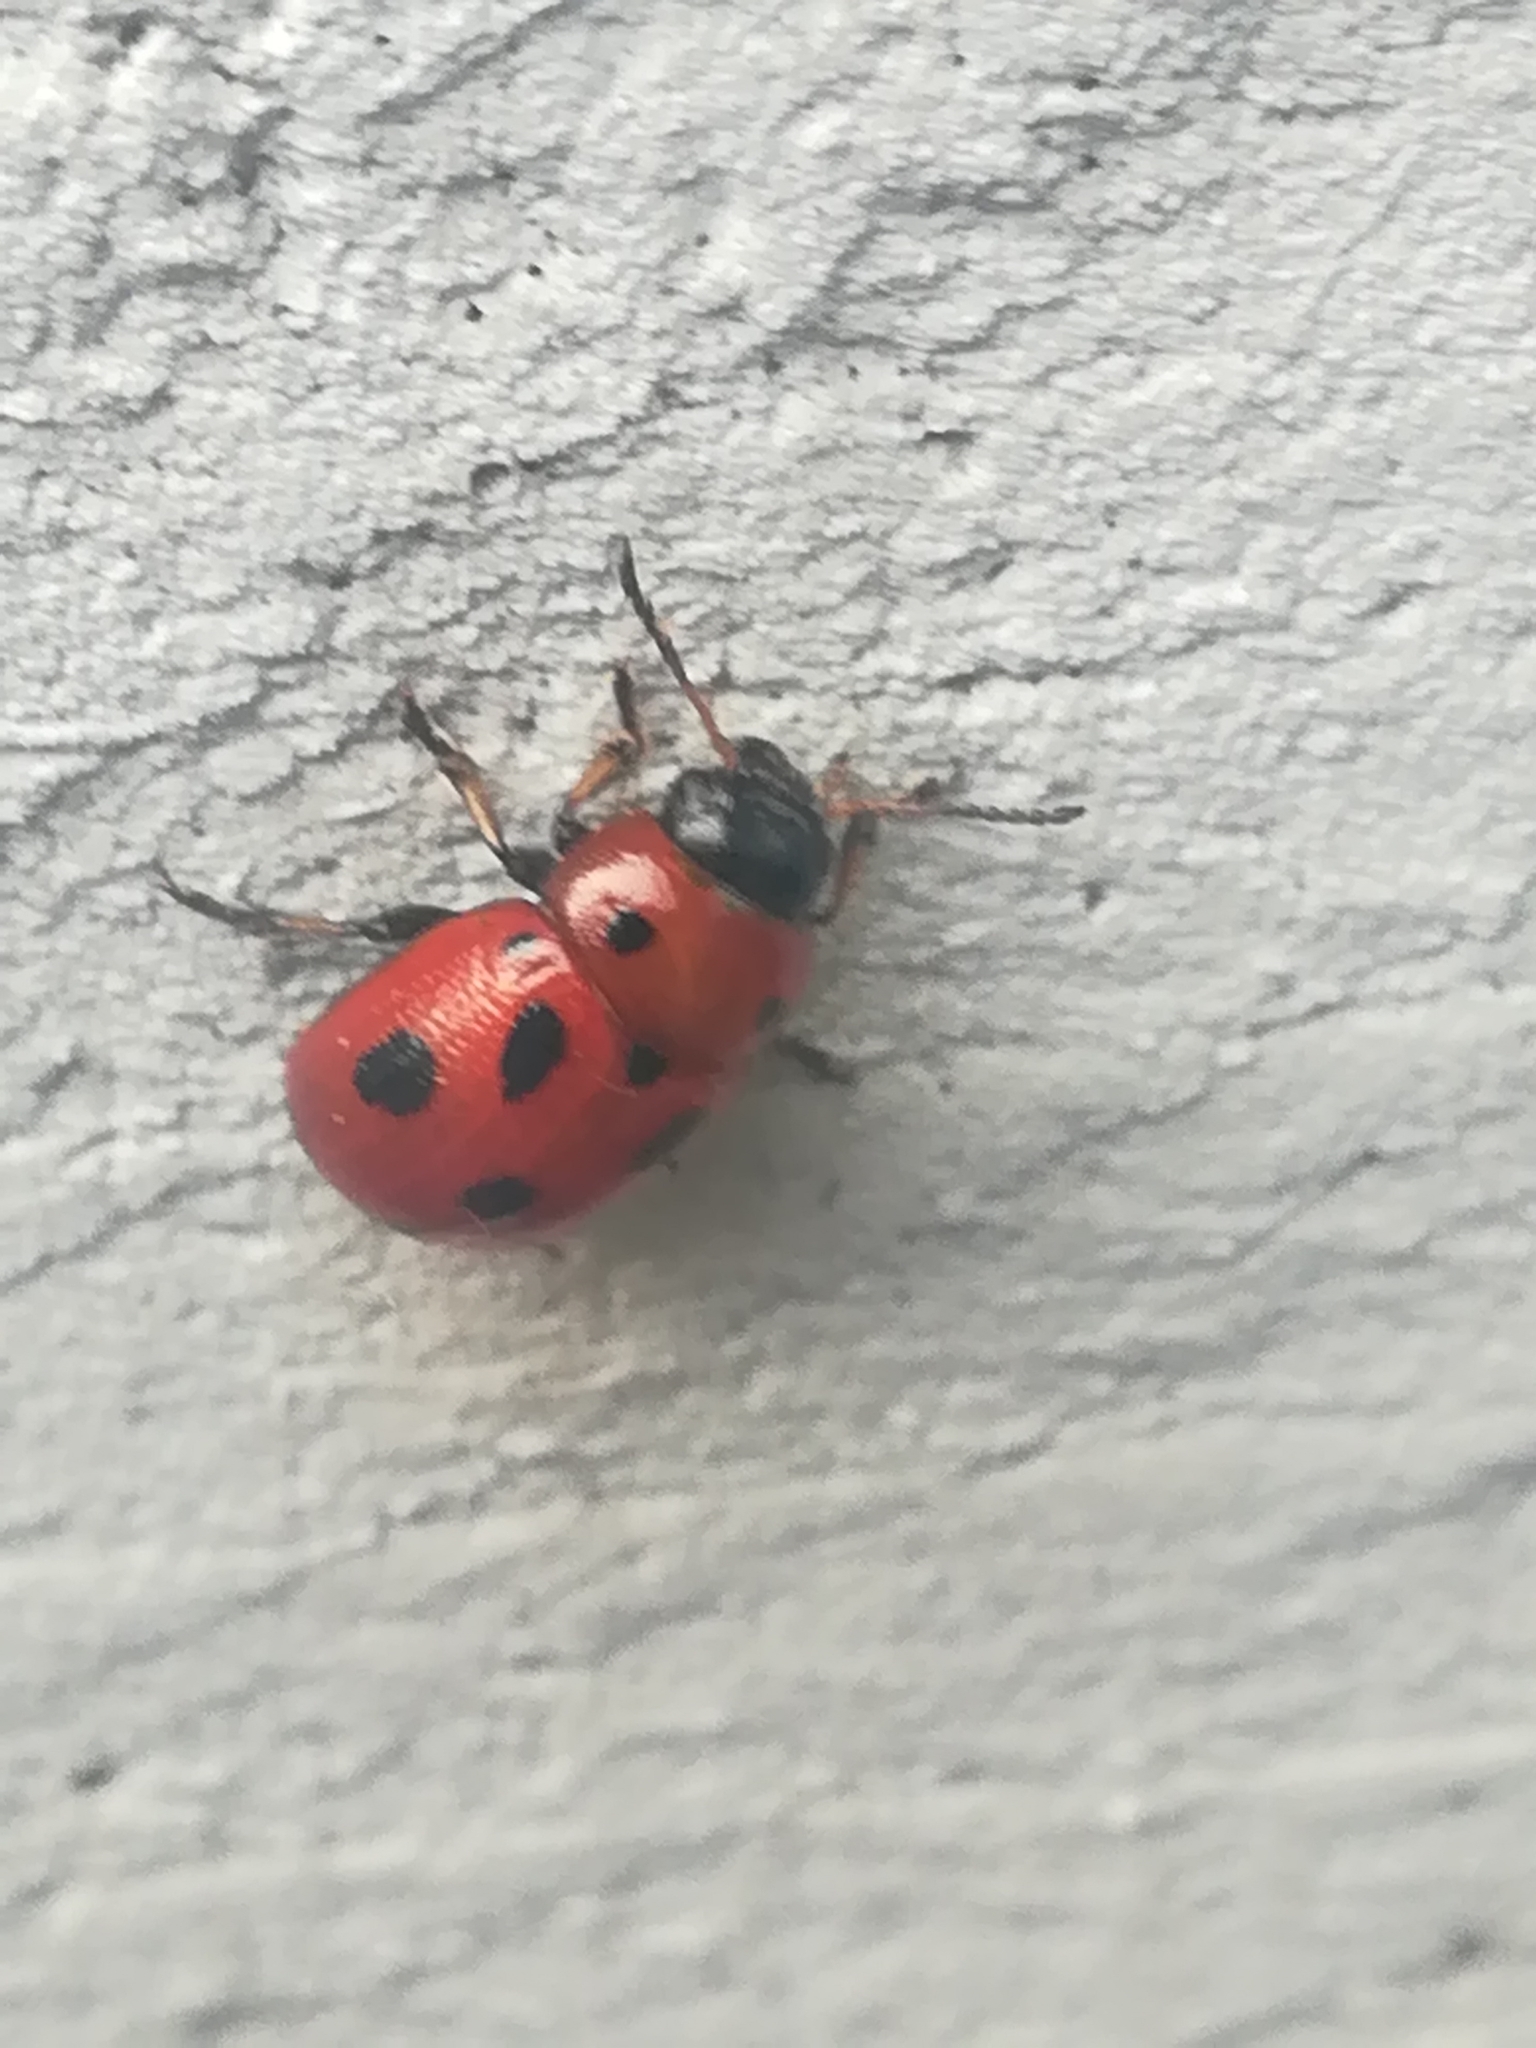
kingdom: Animalia
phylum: Arthropoda
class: Insecta
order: Coleoptera
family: Chrysomelidae
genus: Gonioctena
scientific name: Gonioctena fornicata
